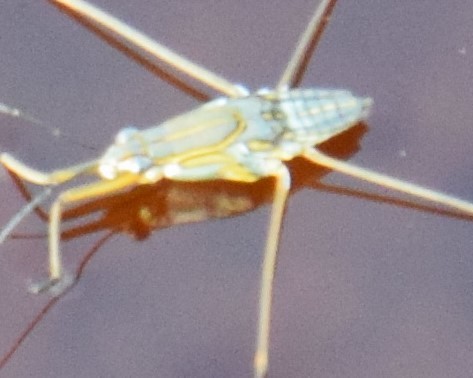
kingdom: Animalia
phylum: Arthropoda
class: Insecta
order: Hemiptera
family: Gerridae
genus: Limnogonus
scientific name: Limnogonus fossarum
